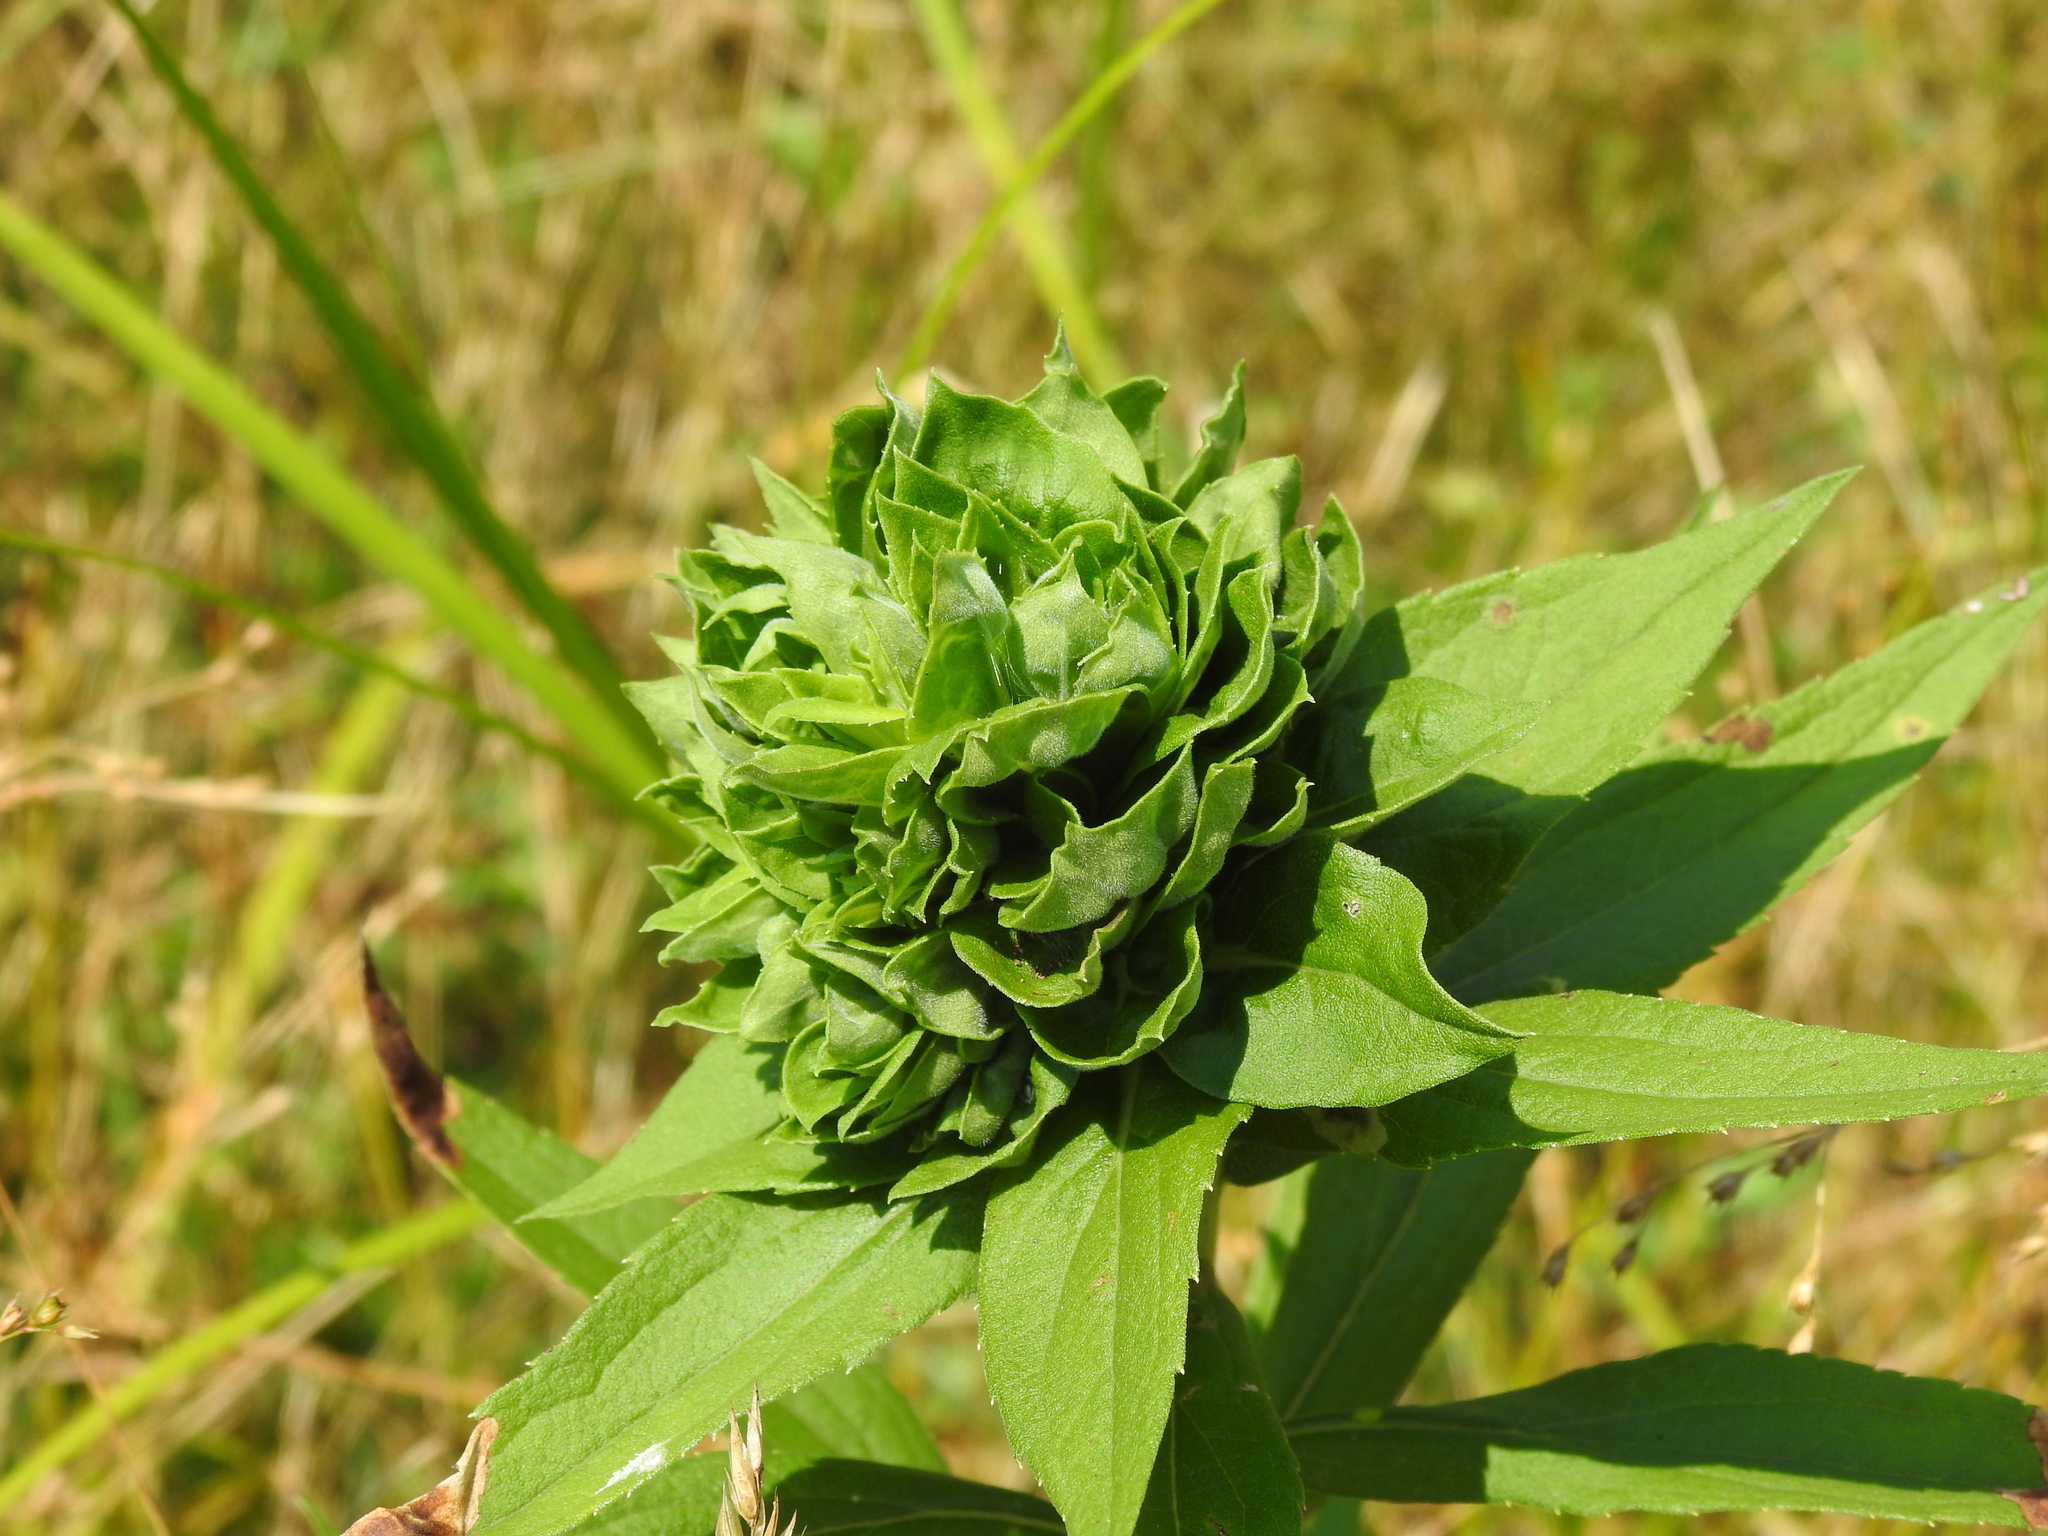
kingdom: Animalia
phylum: Arthropoda
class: Insecta
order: Diptera
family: Cecidomyiidae
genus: Rhopalomyia
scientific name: Rhopalomyia solidaginis
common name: Goldenrod bunch gall midge
